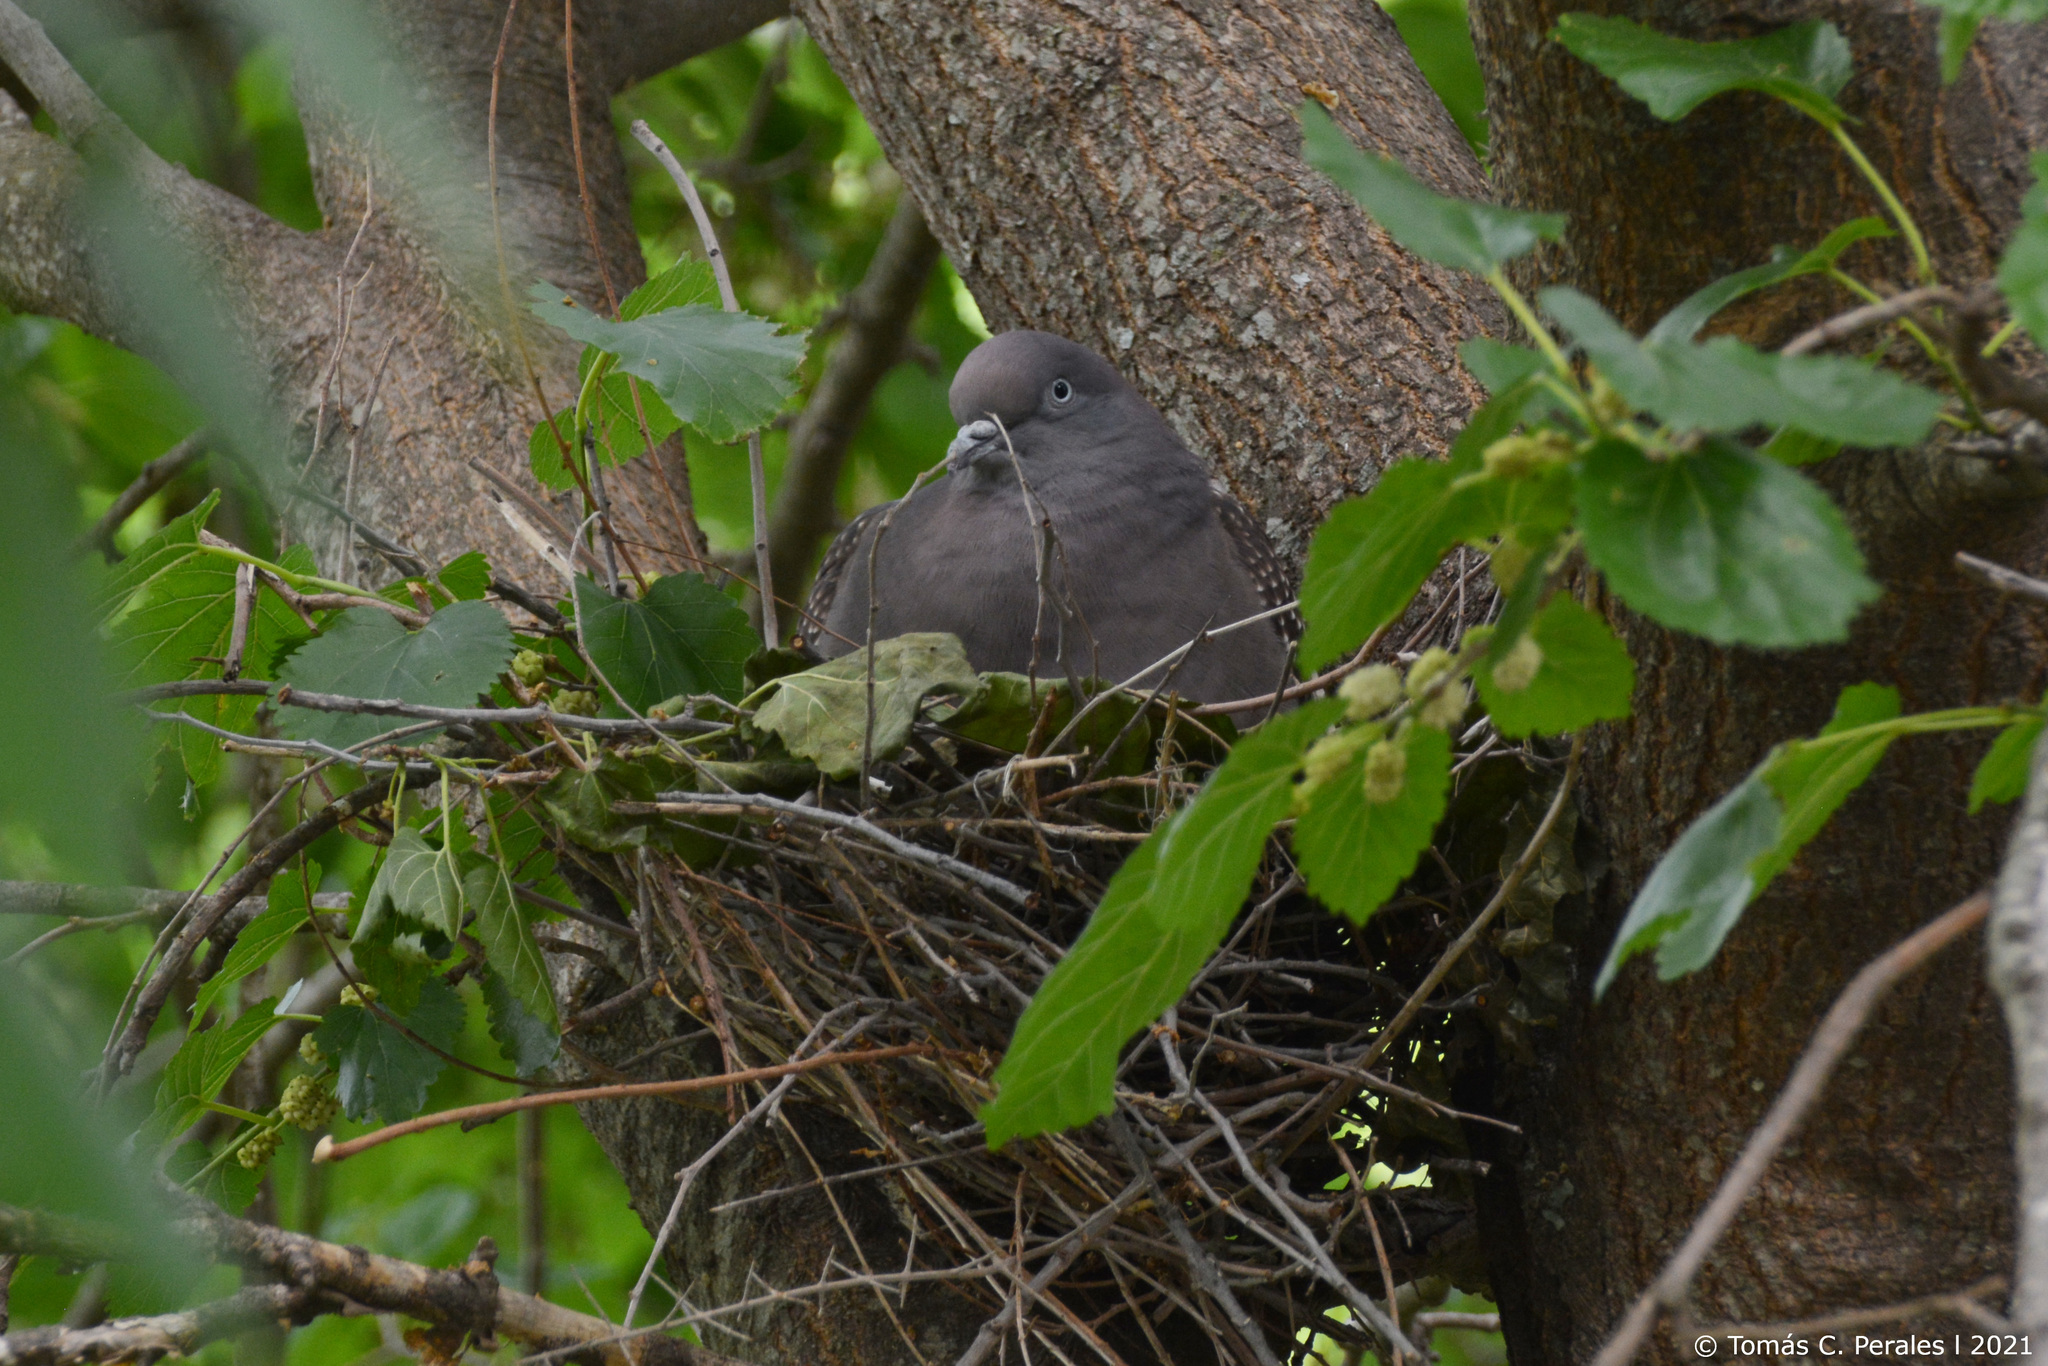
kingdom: Animalia
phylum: Chordata
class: Aves
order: Columbiformes
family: Columbidae
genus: Patagioenas
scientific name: Patagioenas maculosa
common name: Spot-winged pigeon
